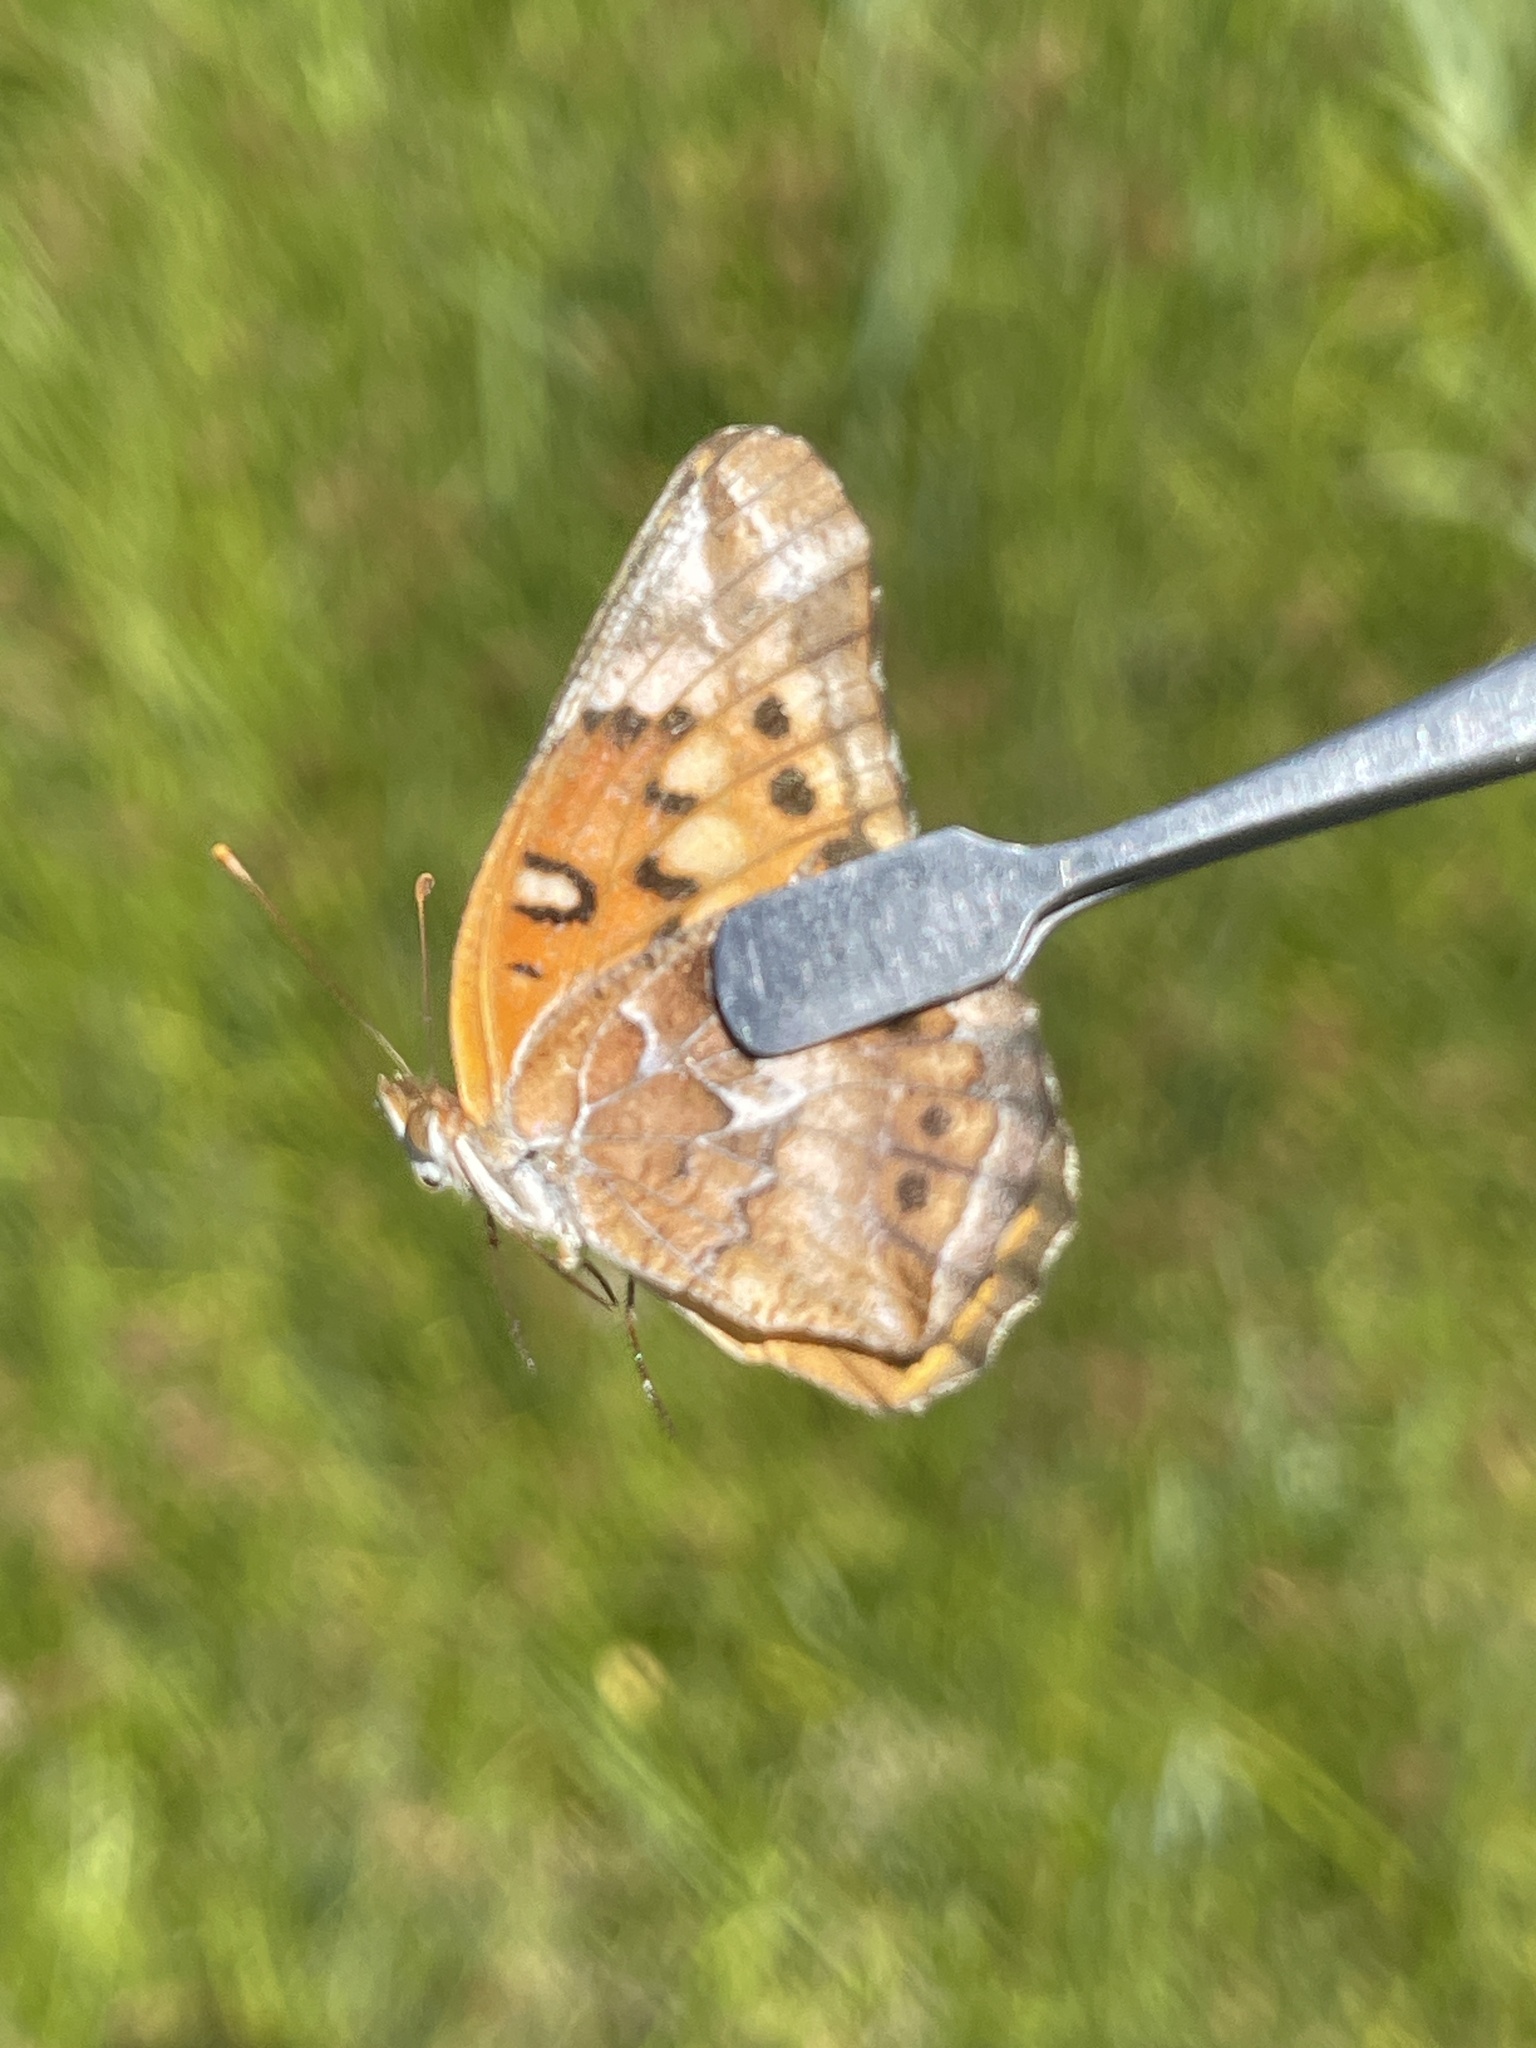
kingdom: Animalia
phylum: Arthropoda
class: Insecta
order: Lepidoptera
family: Nymphalidae
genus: Euptoieta
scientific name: Euptoieta claudia
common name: Variegated fritillary
